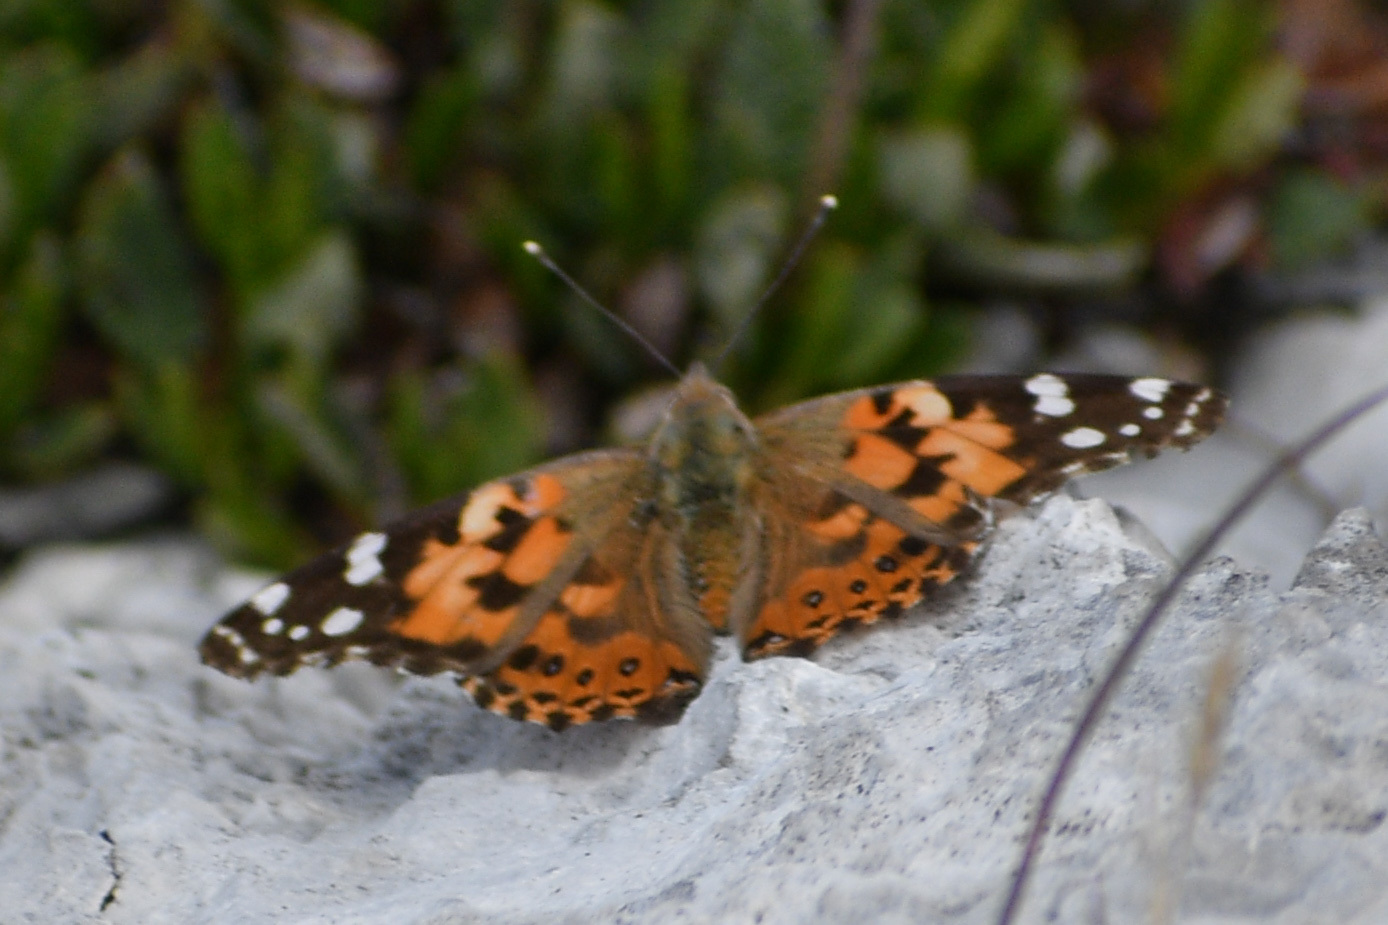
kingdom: Animalia
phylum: Arthropoda
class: Insecta
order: Lepidoptera
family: Nymphalidae
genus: Vanessa
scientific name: Vanessa cardui
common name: Painted lady
